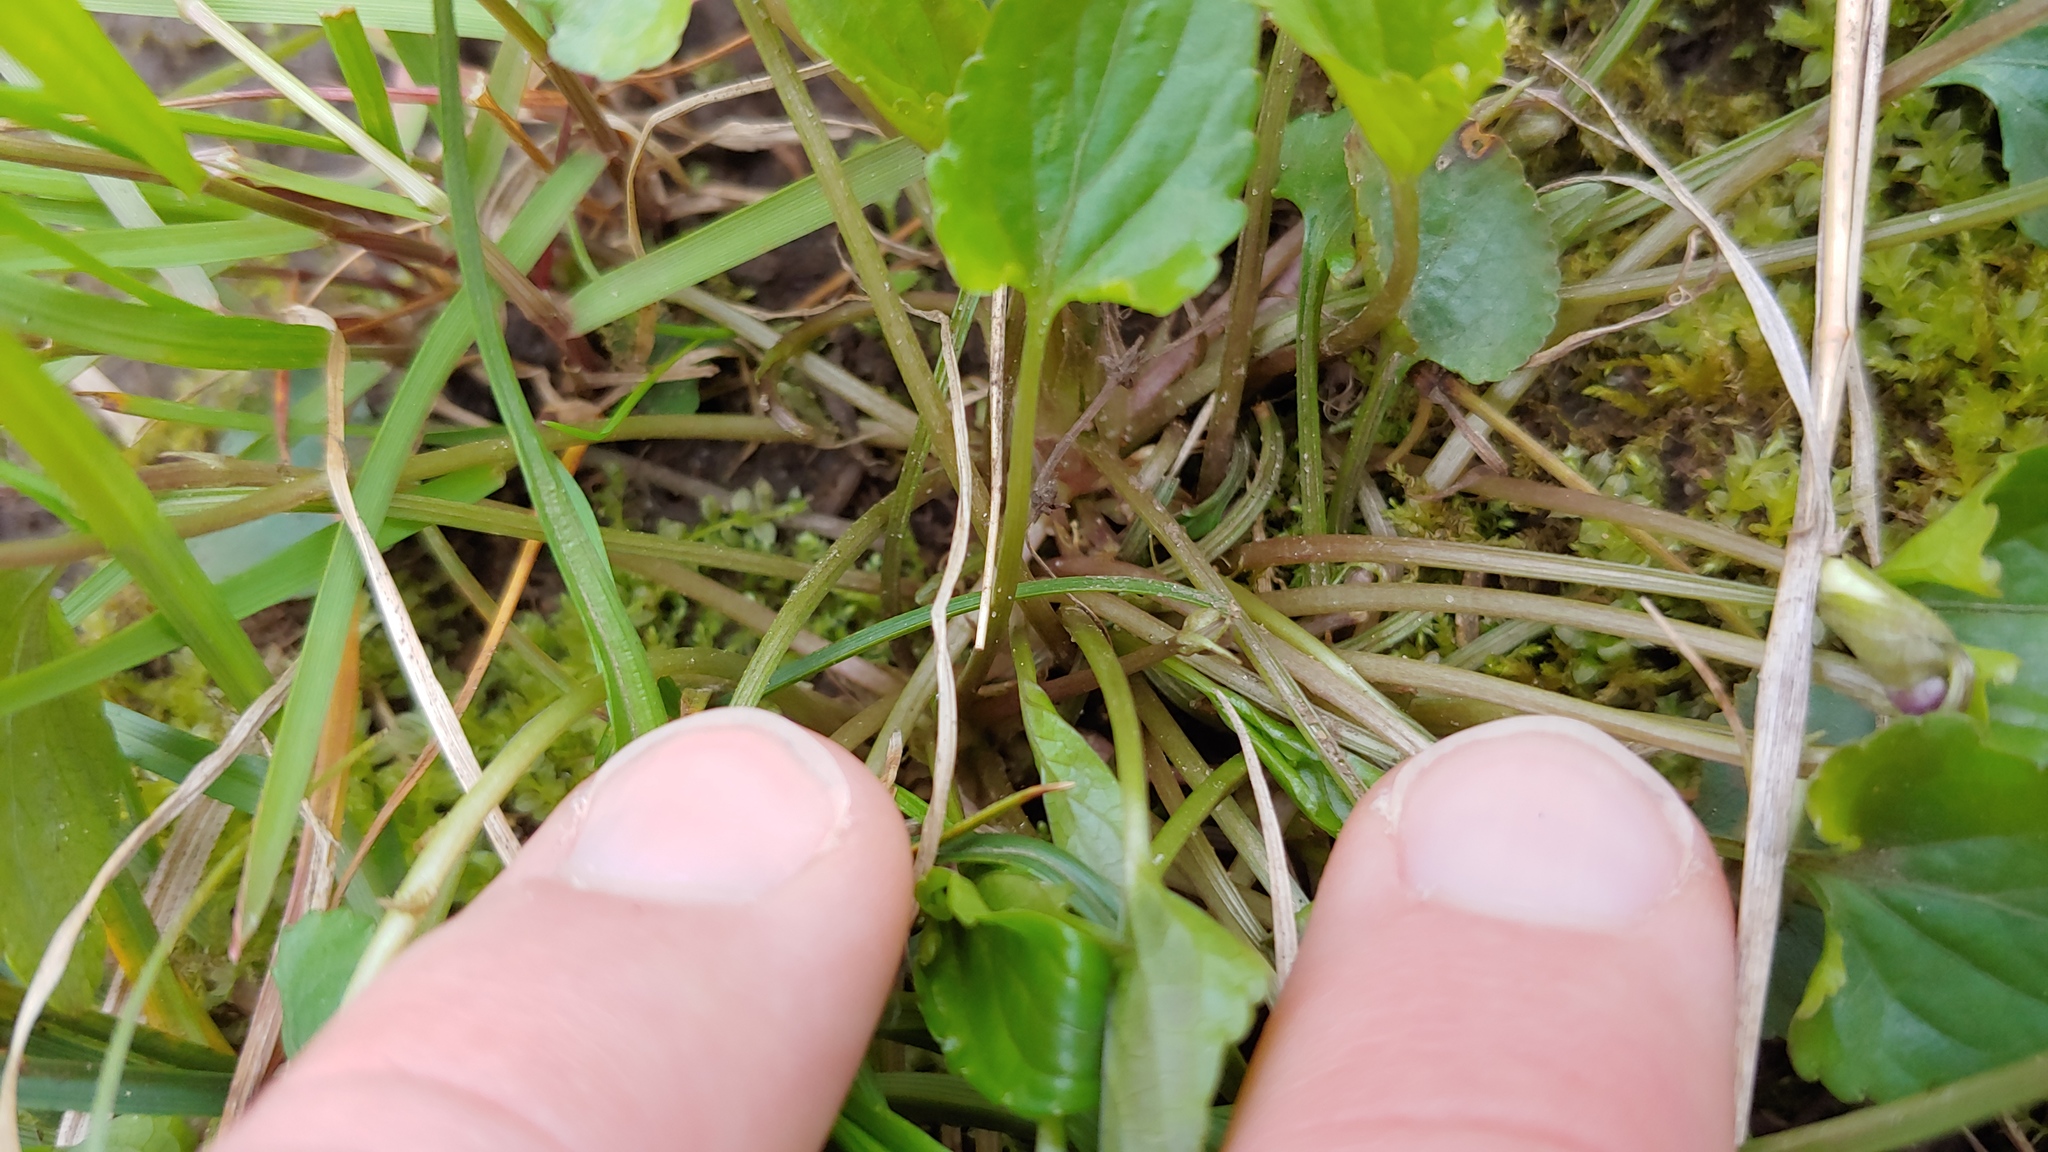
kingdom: Plantae
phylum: Tracheophyta
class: Magnoliopsida
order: Malpighiales
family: Violaceae
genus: Viola
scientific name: Viola missouriensis
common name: Missouri violet
